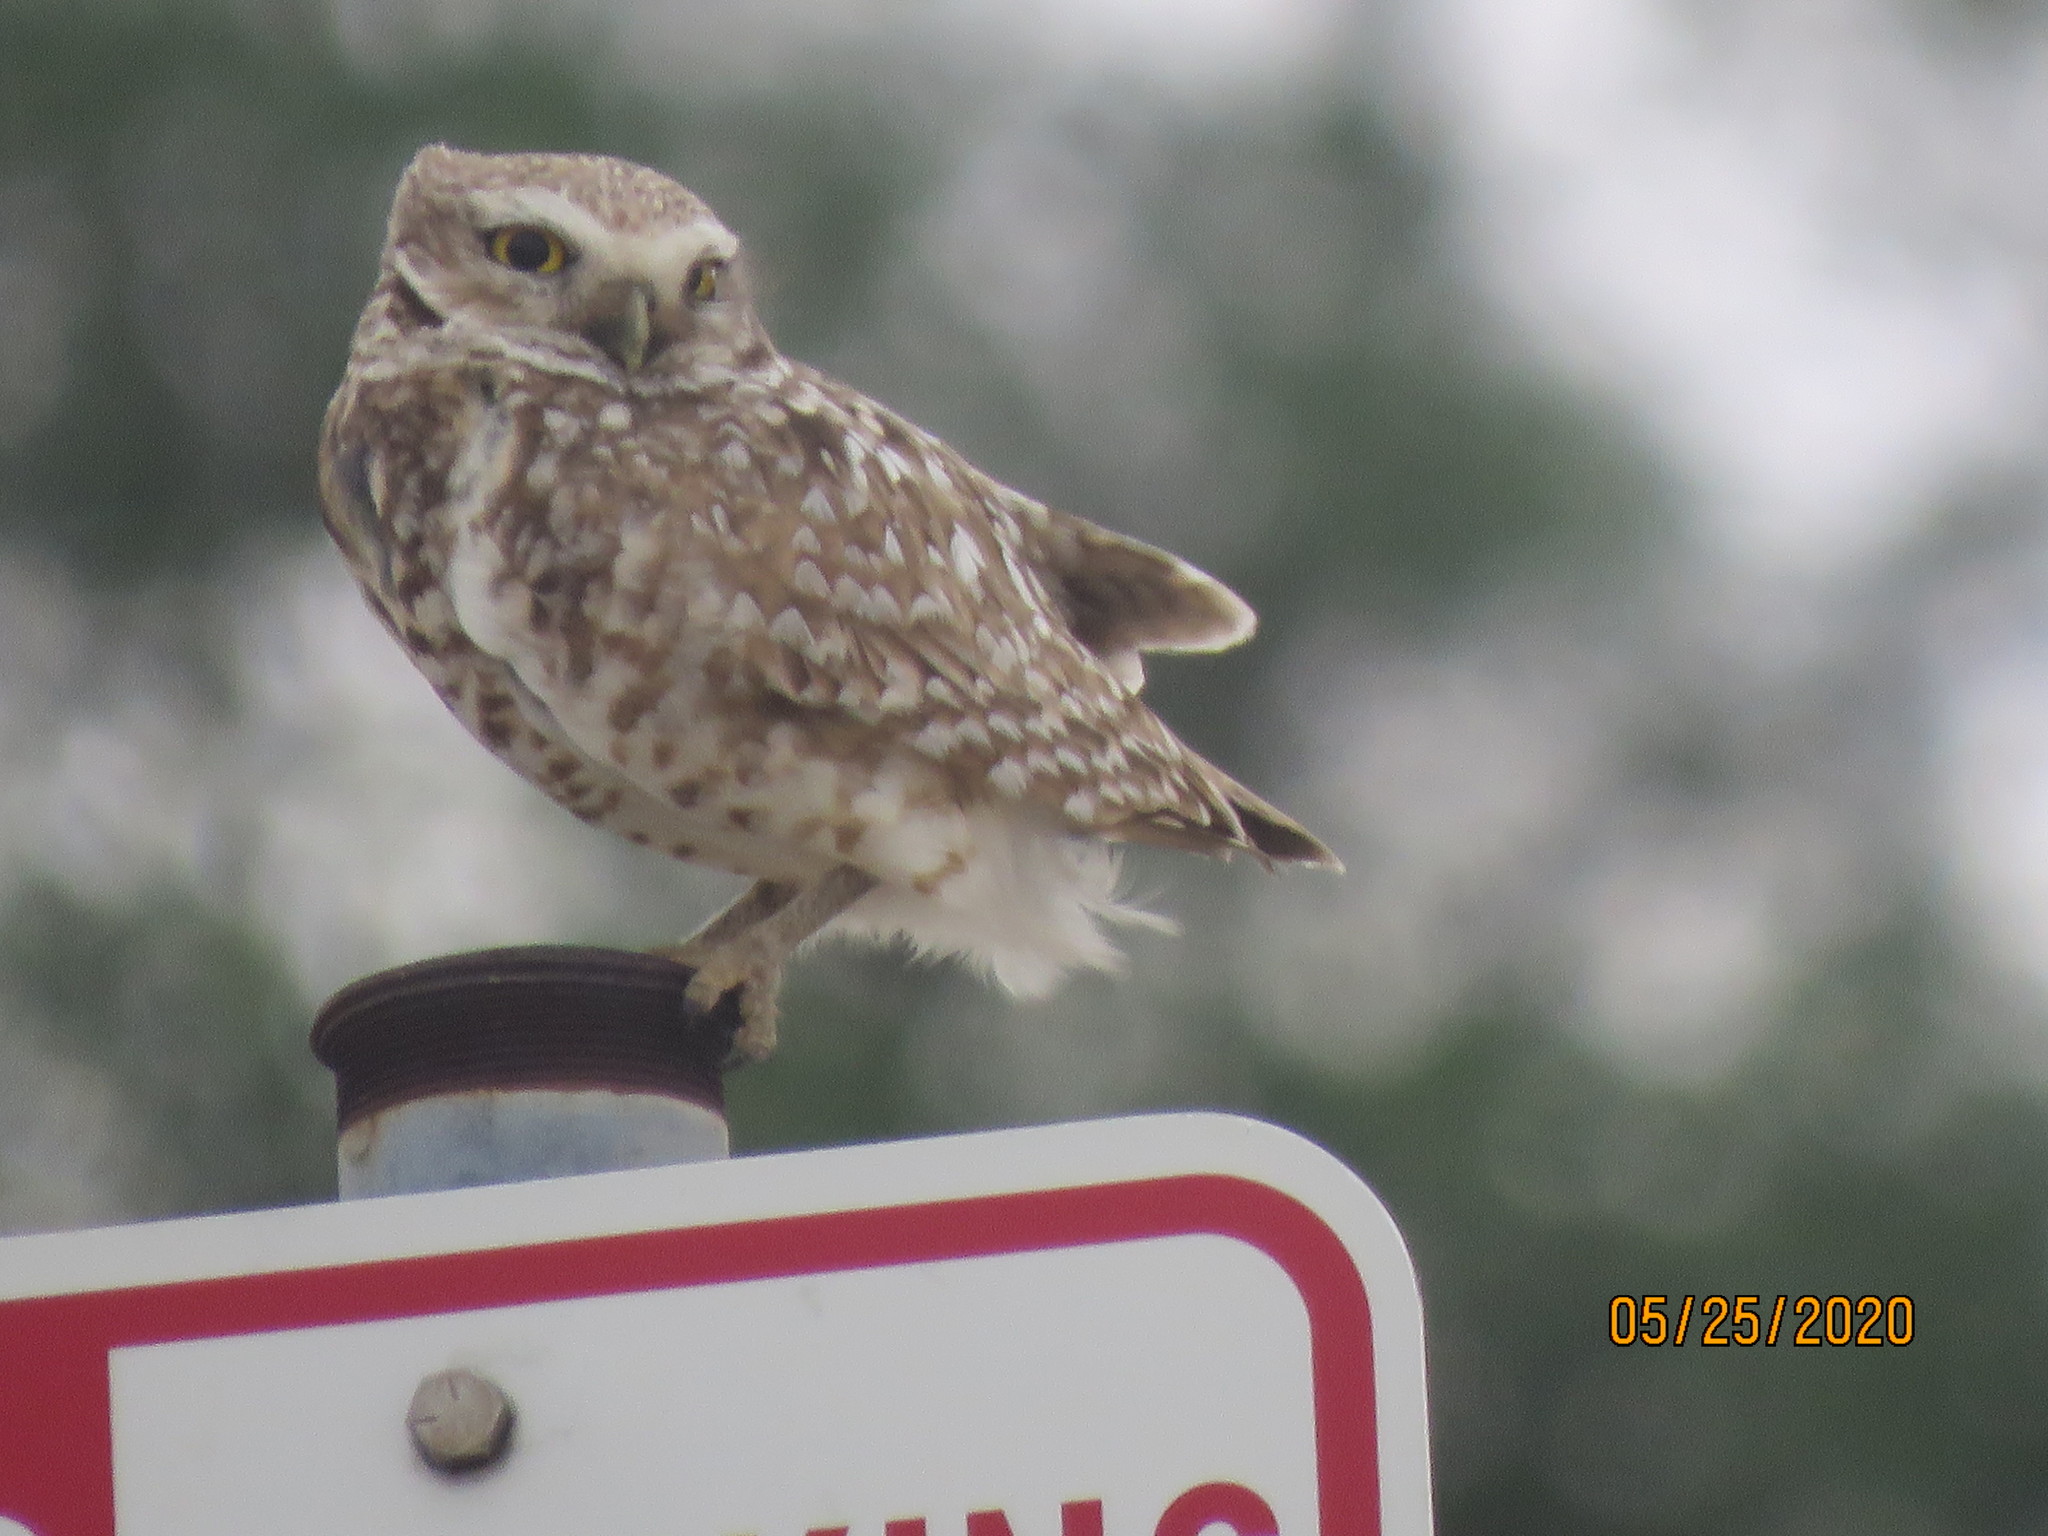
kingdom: Animalia
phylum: Chordata
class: Aves
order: Strigiformes
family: Strigidae
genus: Athene
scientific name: Athene cunicularia
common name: Burrowing owl
